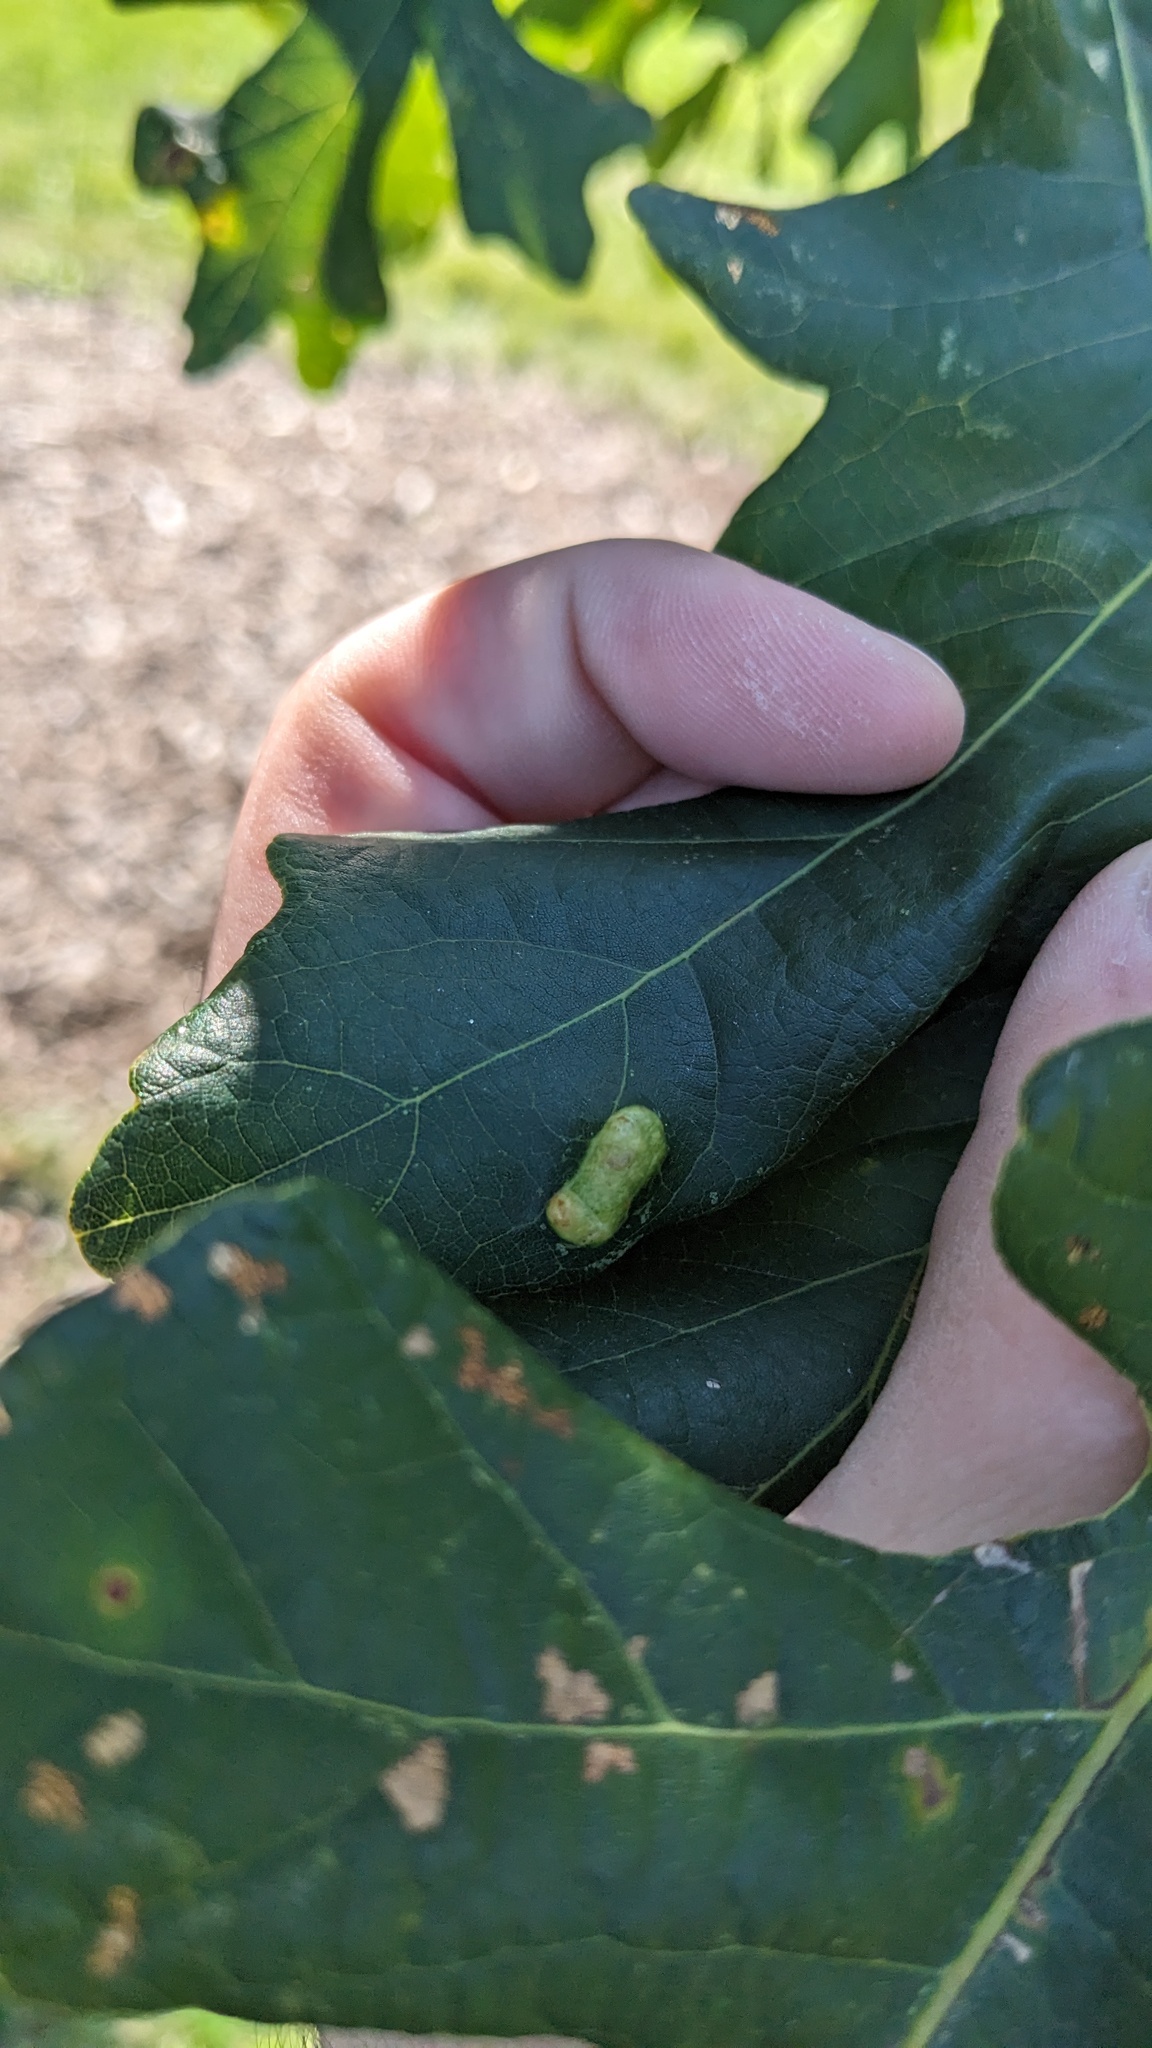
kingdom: Animalia
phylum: Arthropoda
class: Arachnida
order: Trombidiformes
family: Eriophyidae
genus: Aceria
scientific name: Aceria quercina
